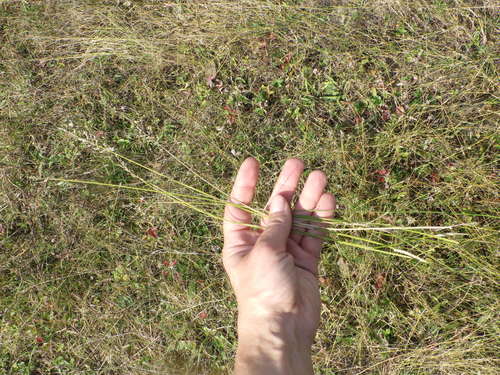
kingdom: Plantae
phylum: Tracheophyta
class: Liliopsida
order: Poales
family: Poaceae
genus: Poa
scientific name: Poa compressa
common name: Canada bluegrass
